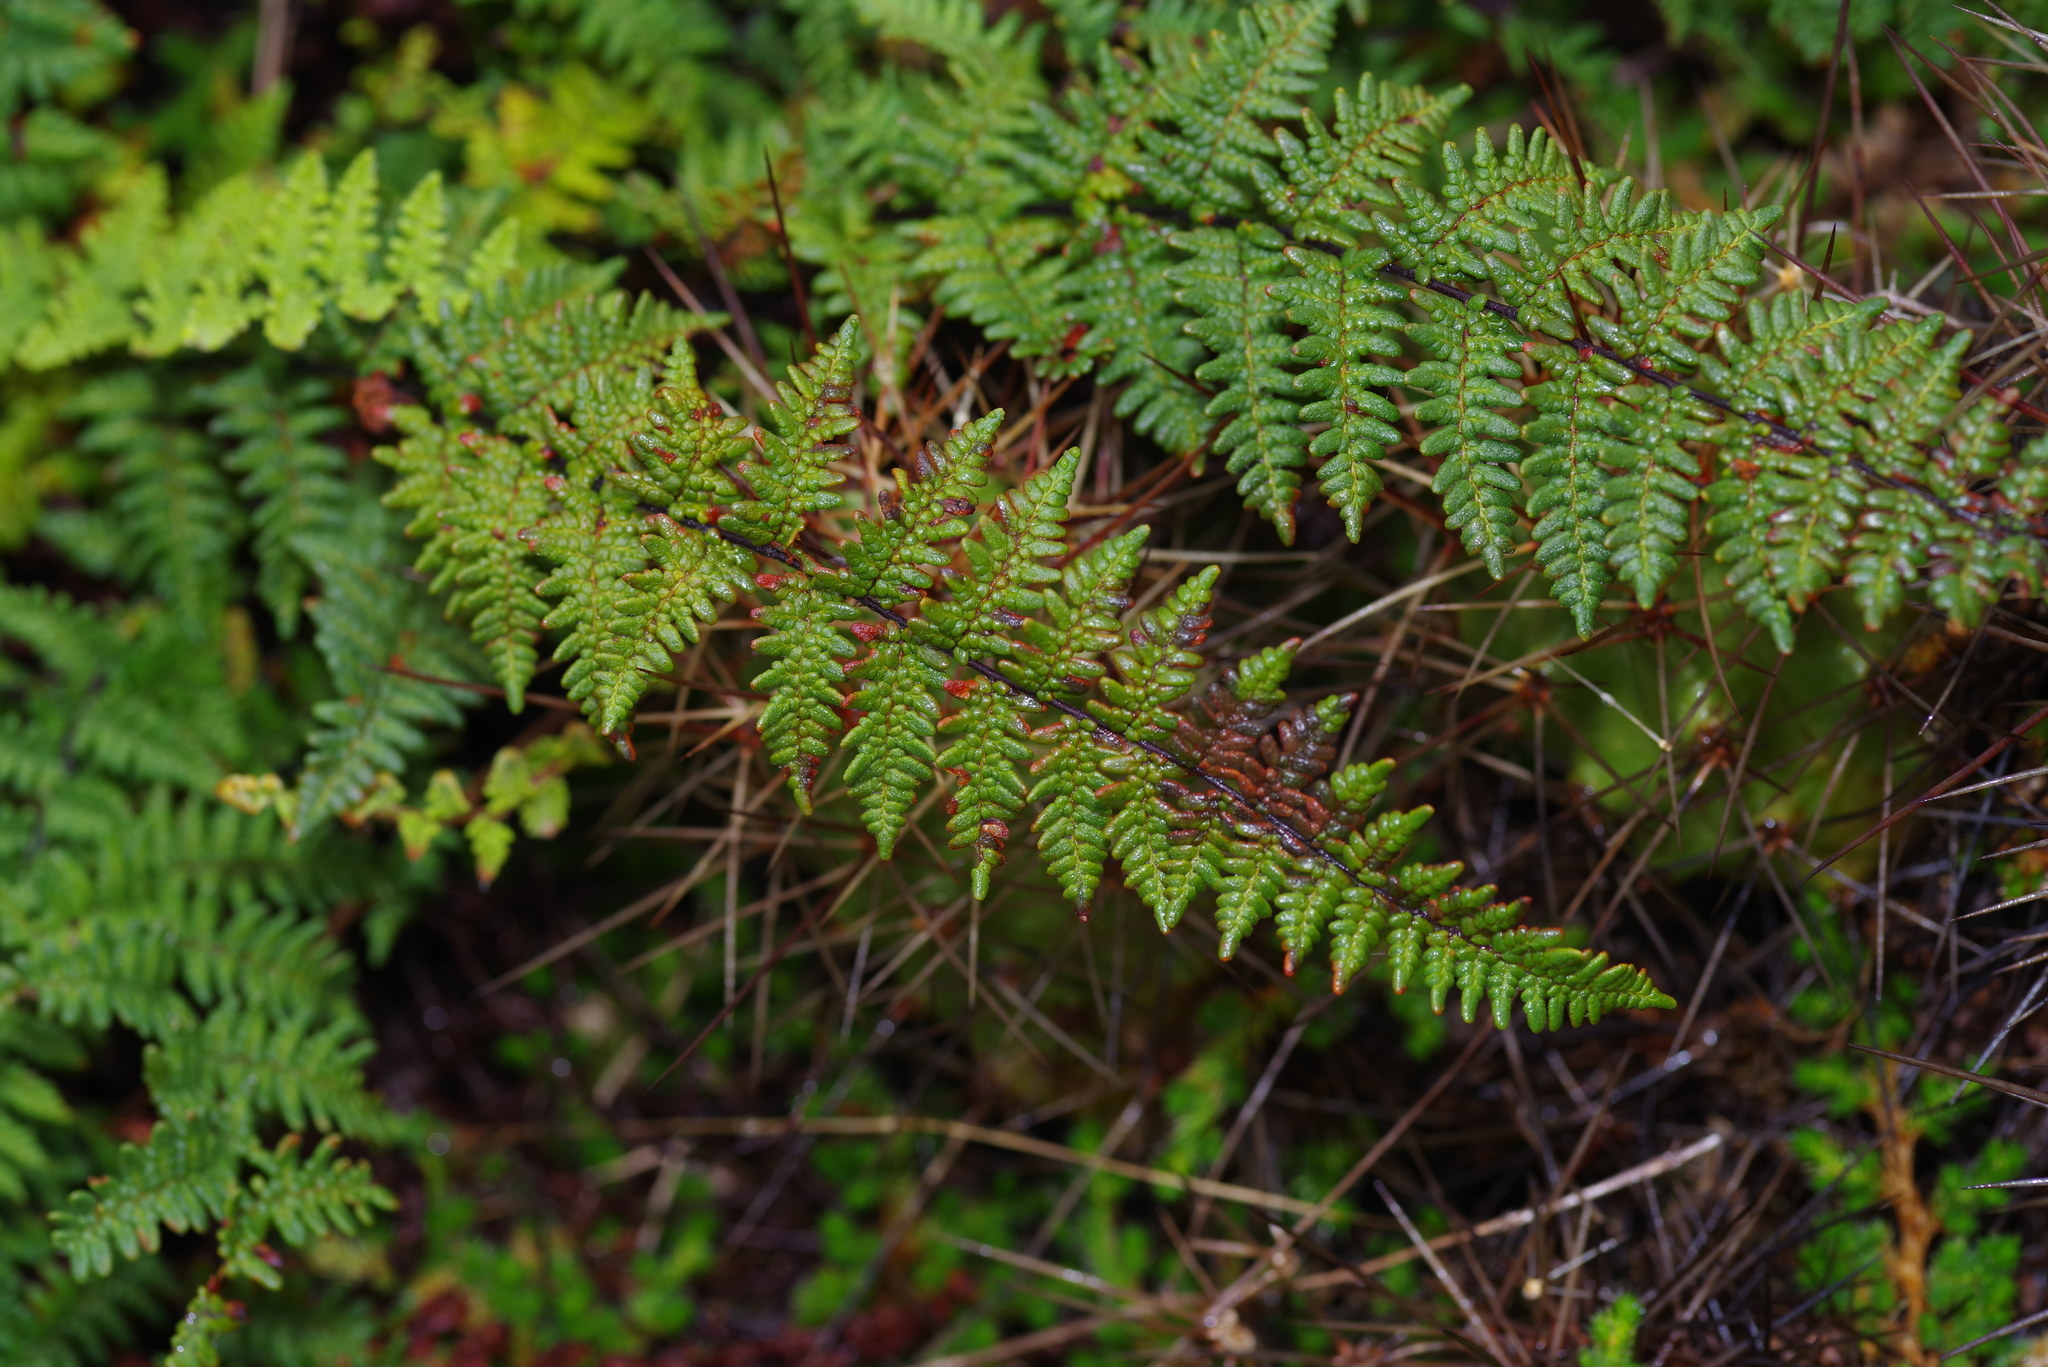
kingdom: Plantae
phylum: Tracheophyta
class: Polypodiopsida
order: Polypodiales
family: Pteridaceae
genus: Myriopteris
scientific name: Myriopteris tomentosa
